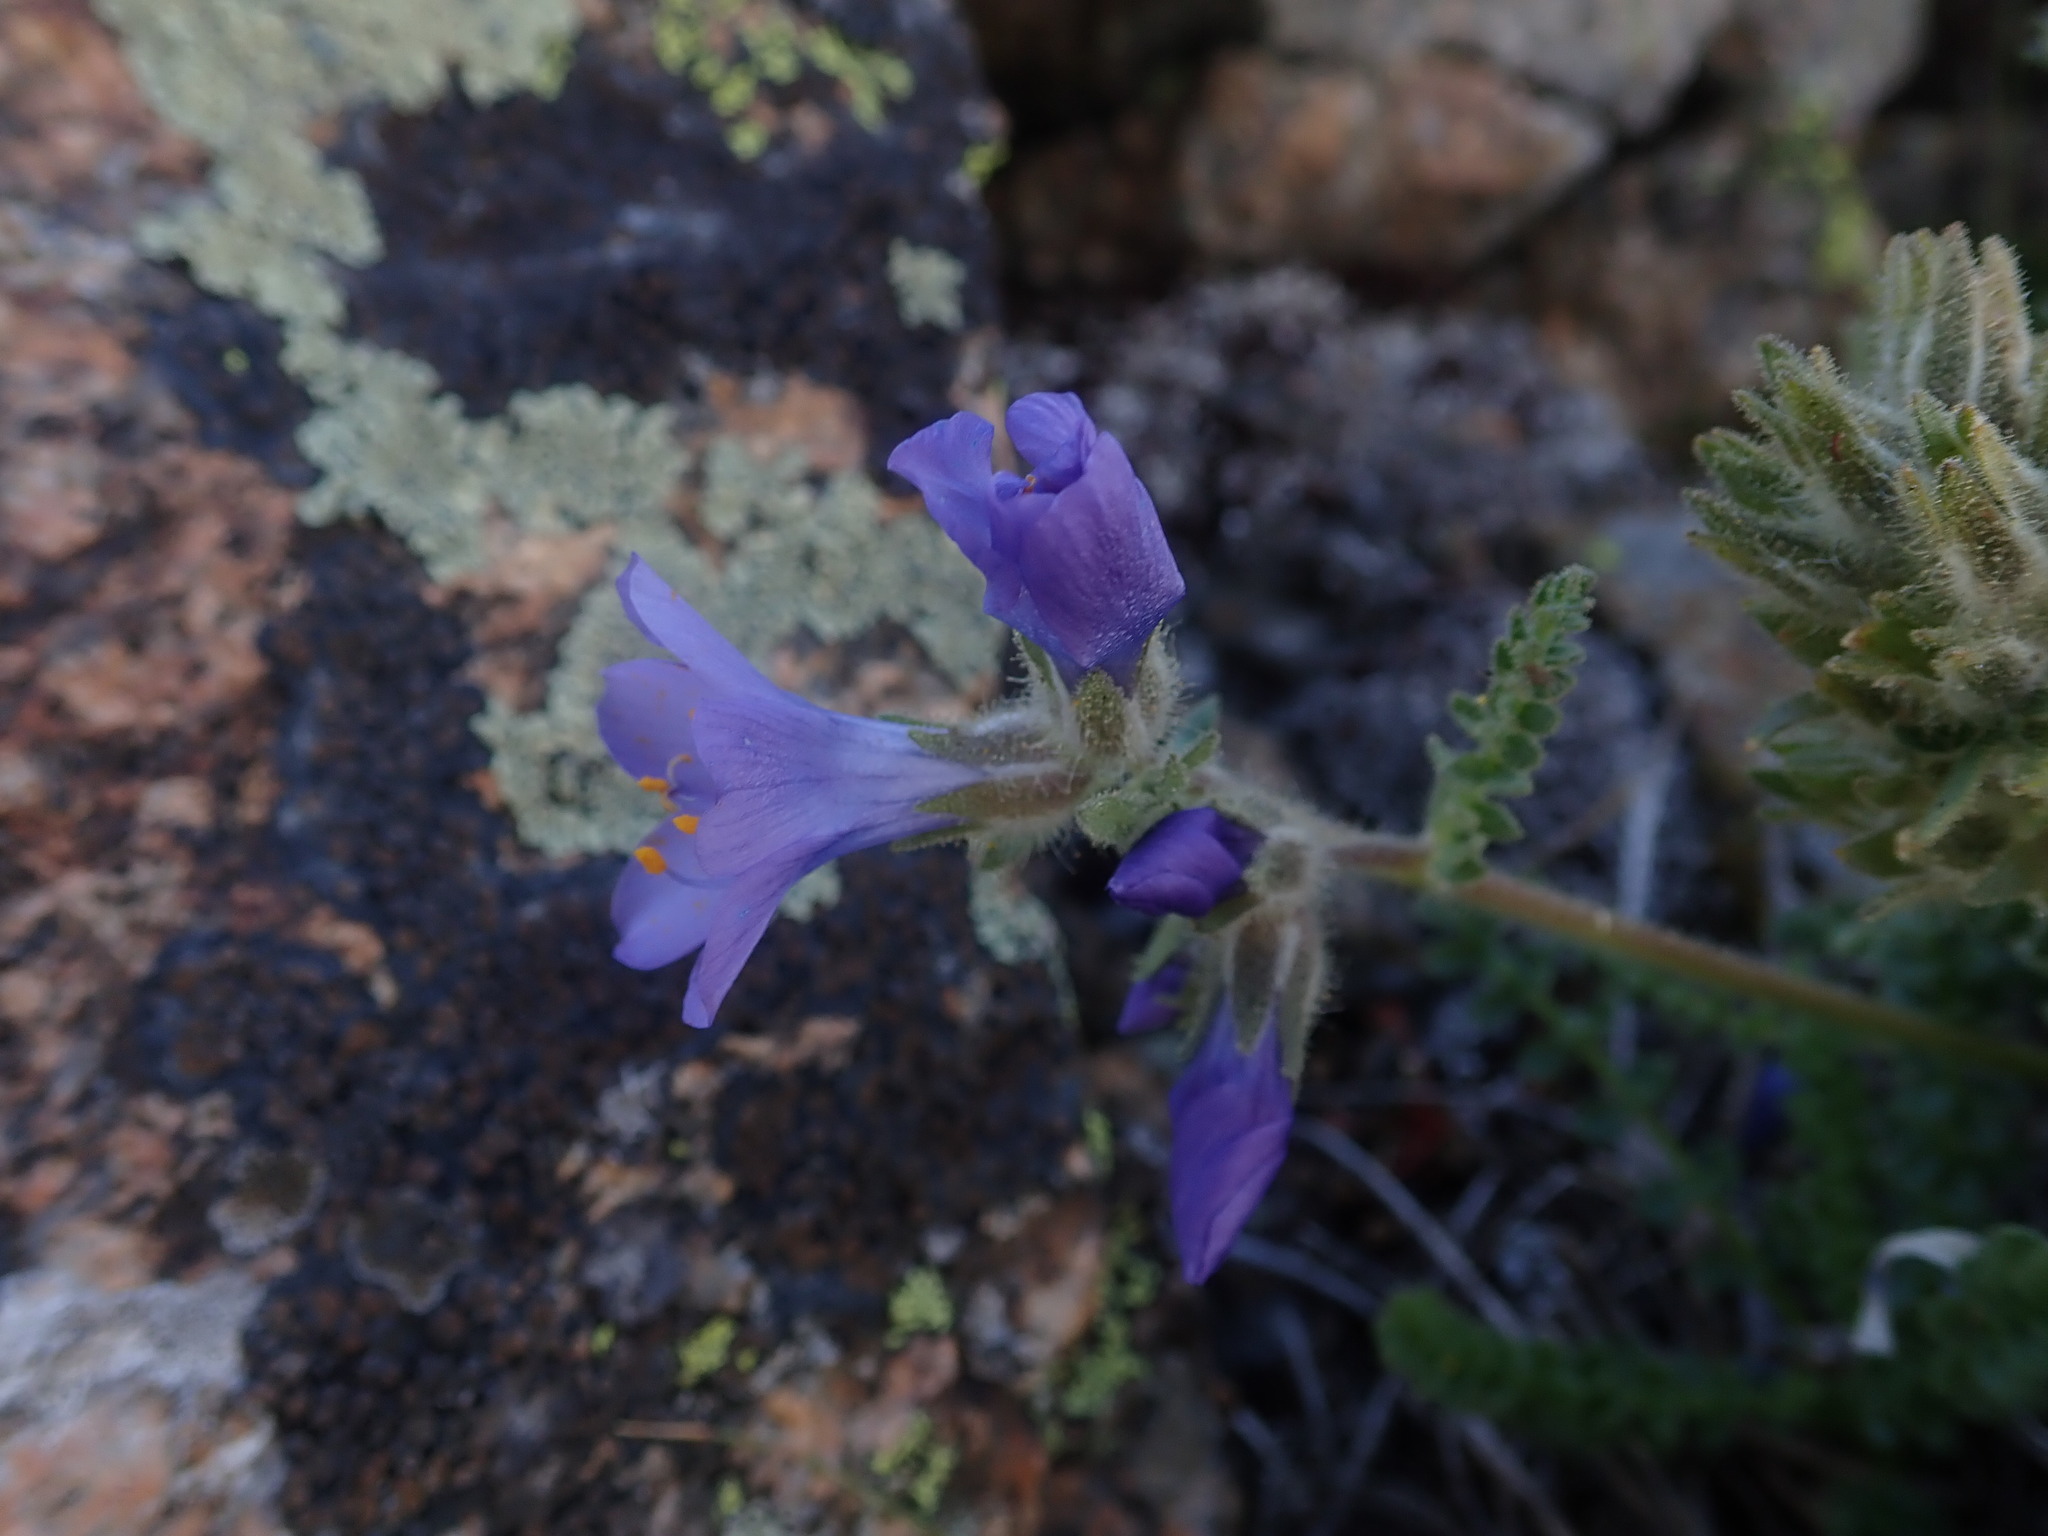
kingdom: Plantae
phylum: Tracheophyta
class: Magnoliopsida
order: Ericales
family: Polemoniaceae
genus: Polemonium
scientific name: Polemonium viscosum
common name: Skunk jacob's-ladder
